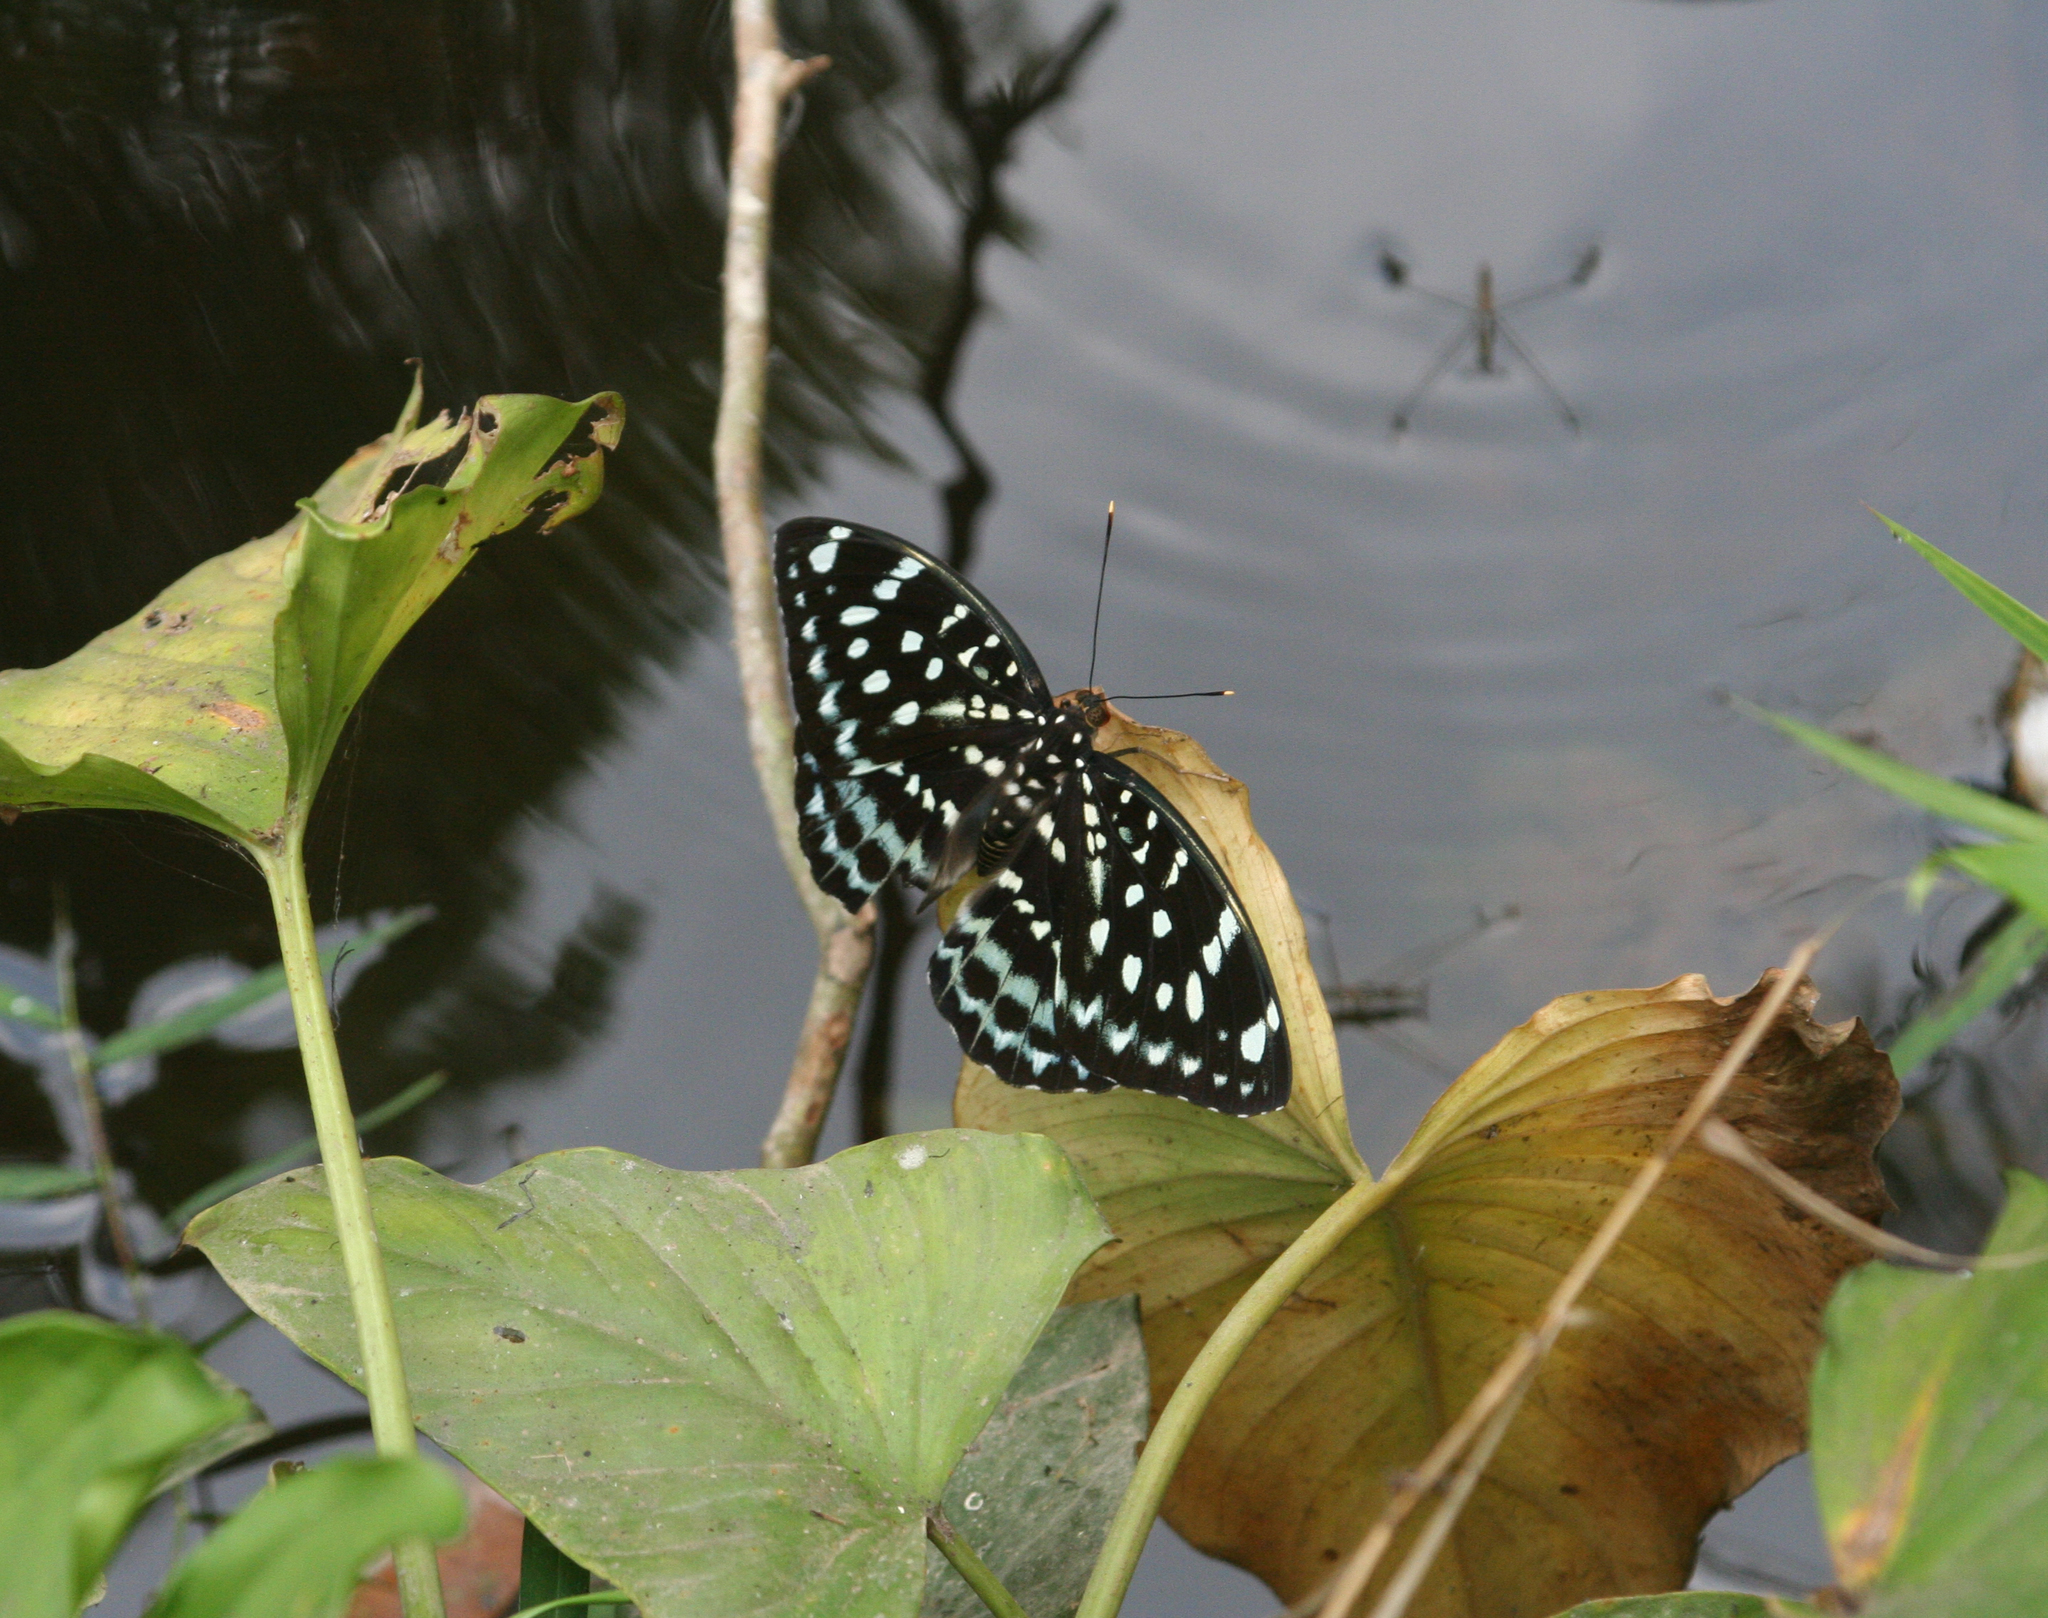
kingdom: Animalia
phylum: Arthropoda
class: Insecta
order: Lepidoptera
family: Nymphalidae
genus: Lexias
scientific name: Lexias
